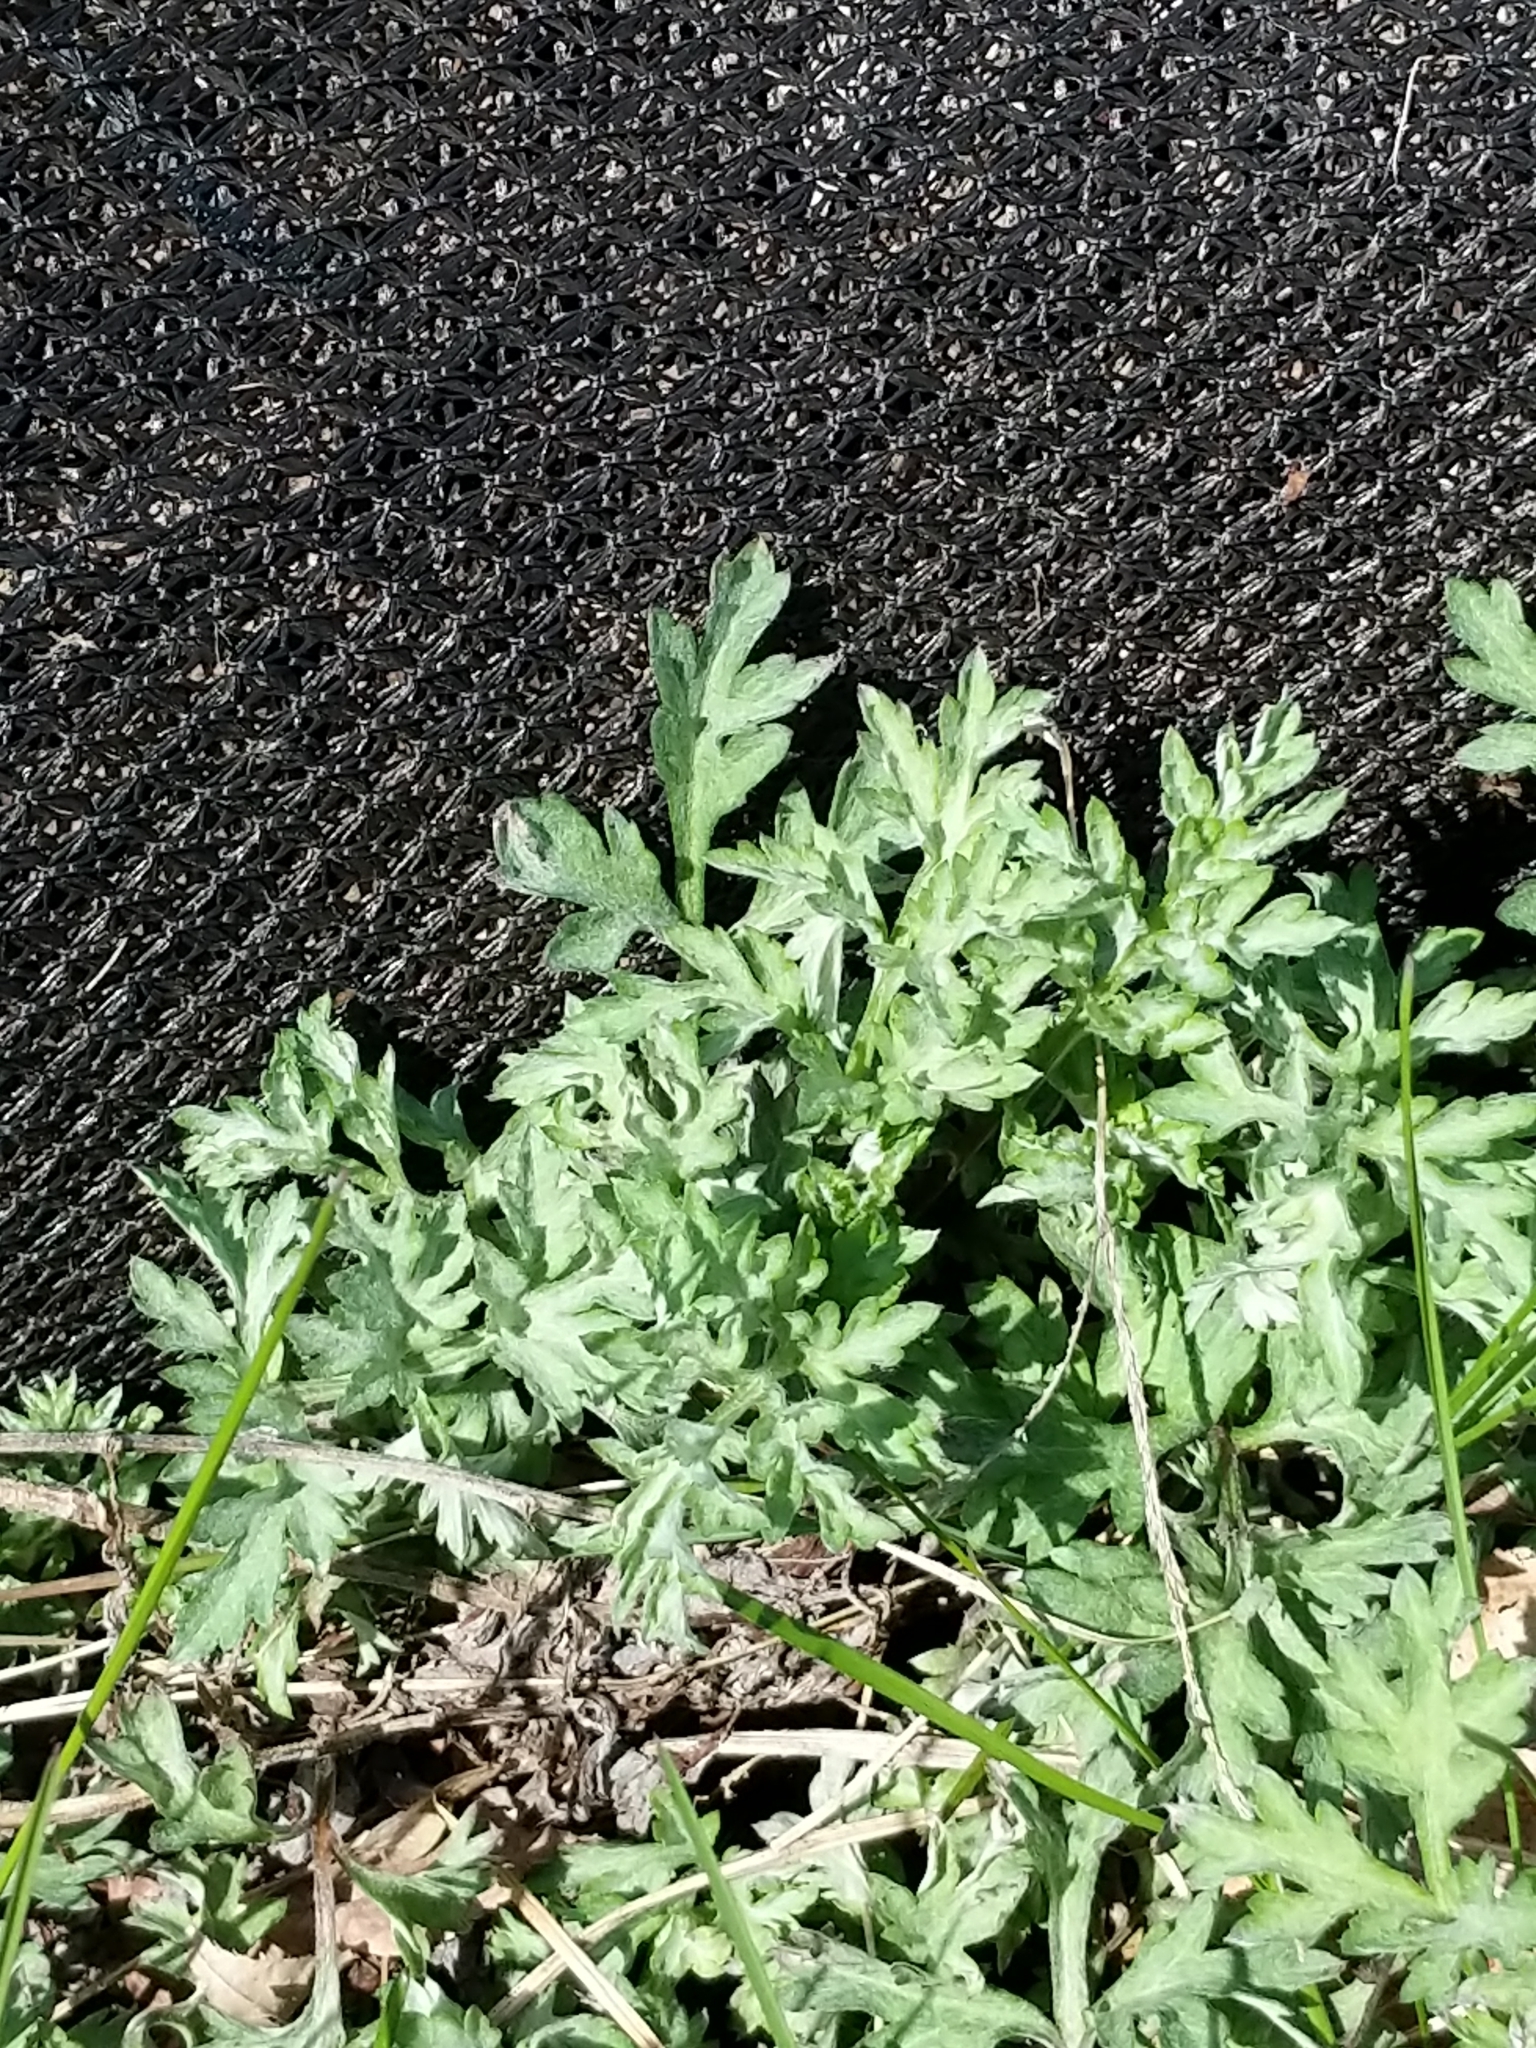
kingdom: Plantae
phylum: Tracheophyta
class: Magnoliopsida
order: Asterales
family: Asteraceae
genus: Artemisia
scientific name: Artemisia vulgaris
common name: Mugwort
